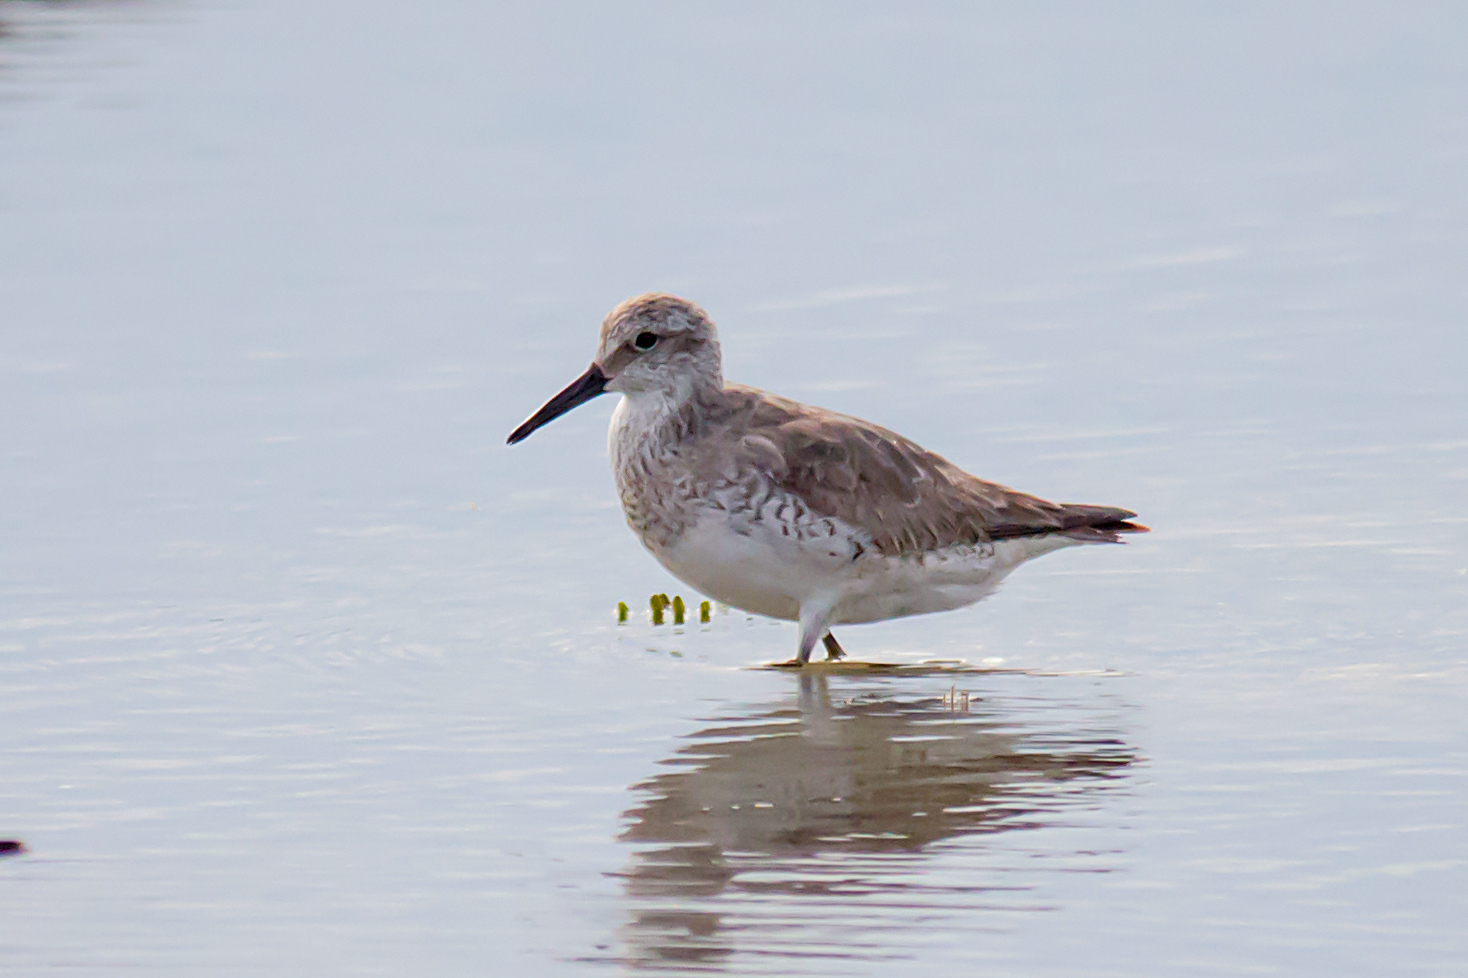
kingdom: Animalia
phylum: Chordata
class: Aves
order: Charadriiformes
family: Scolopacidae
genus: Calidris
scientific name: Calidris tenuirostris
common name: Great knot
